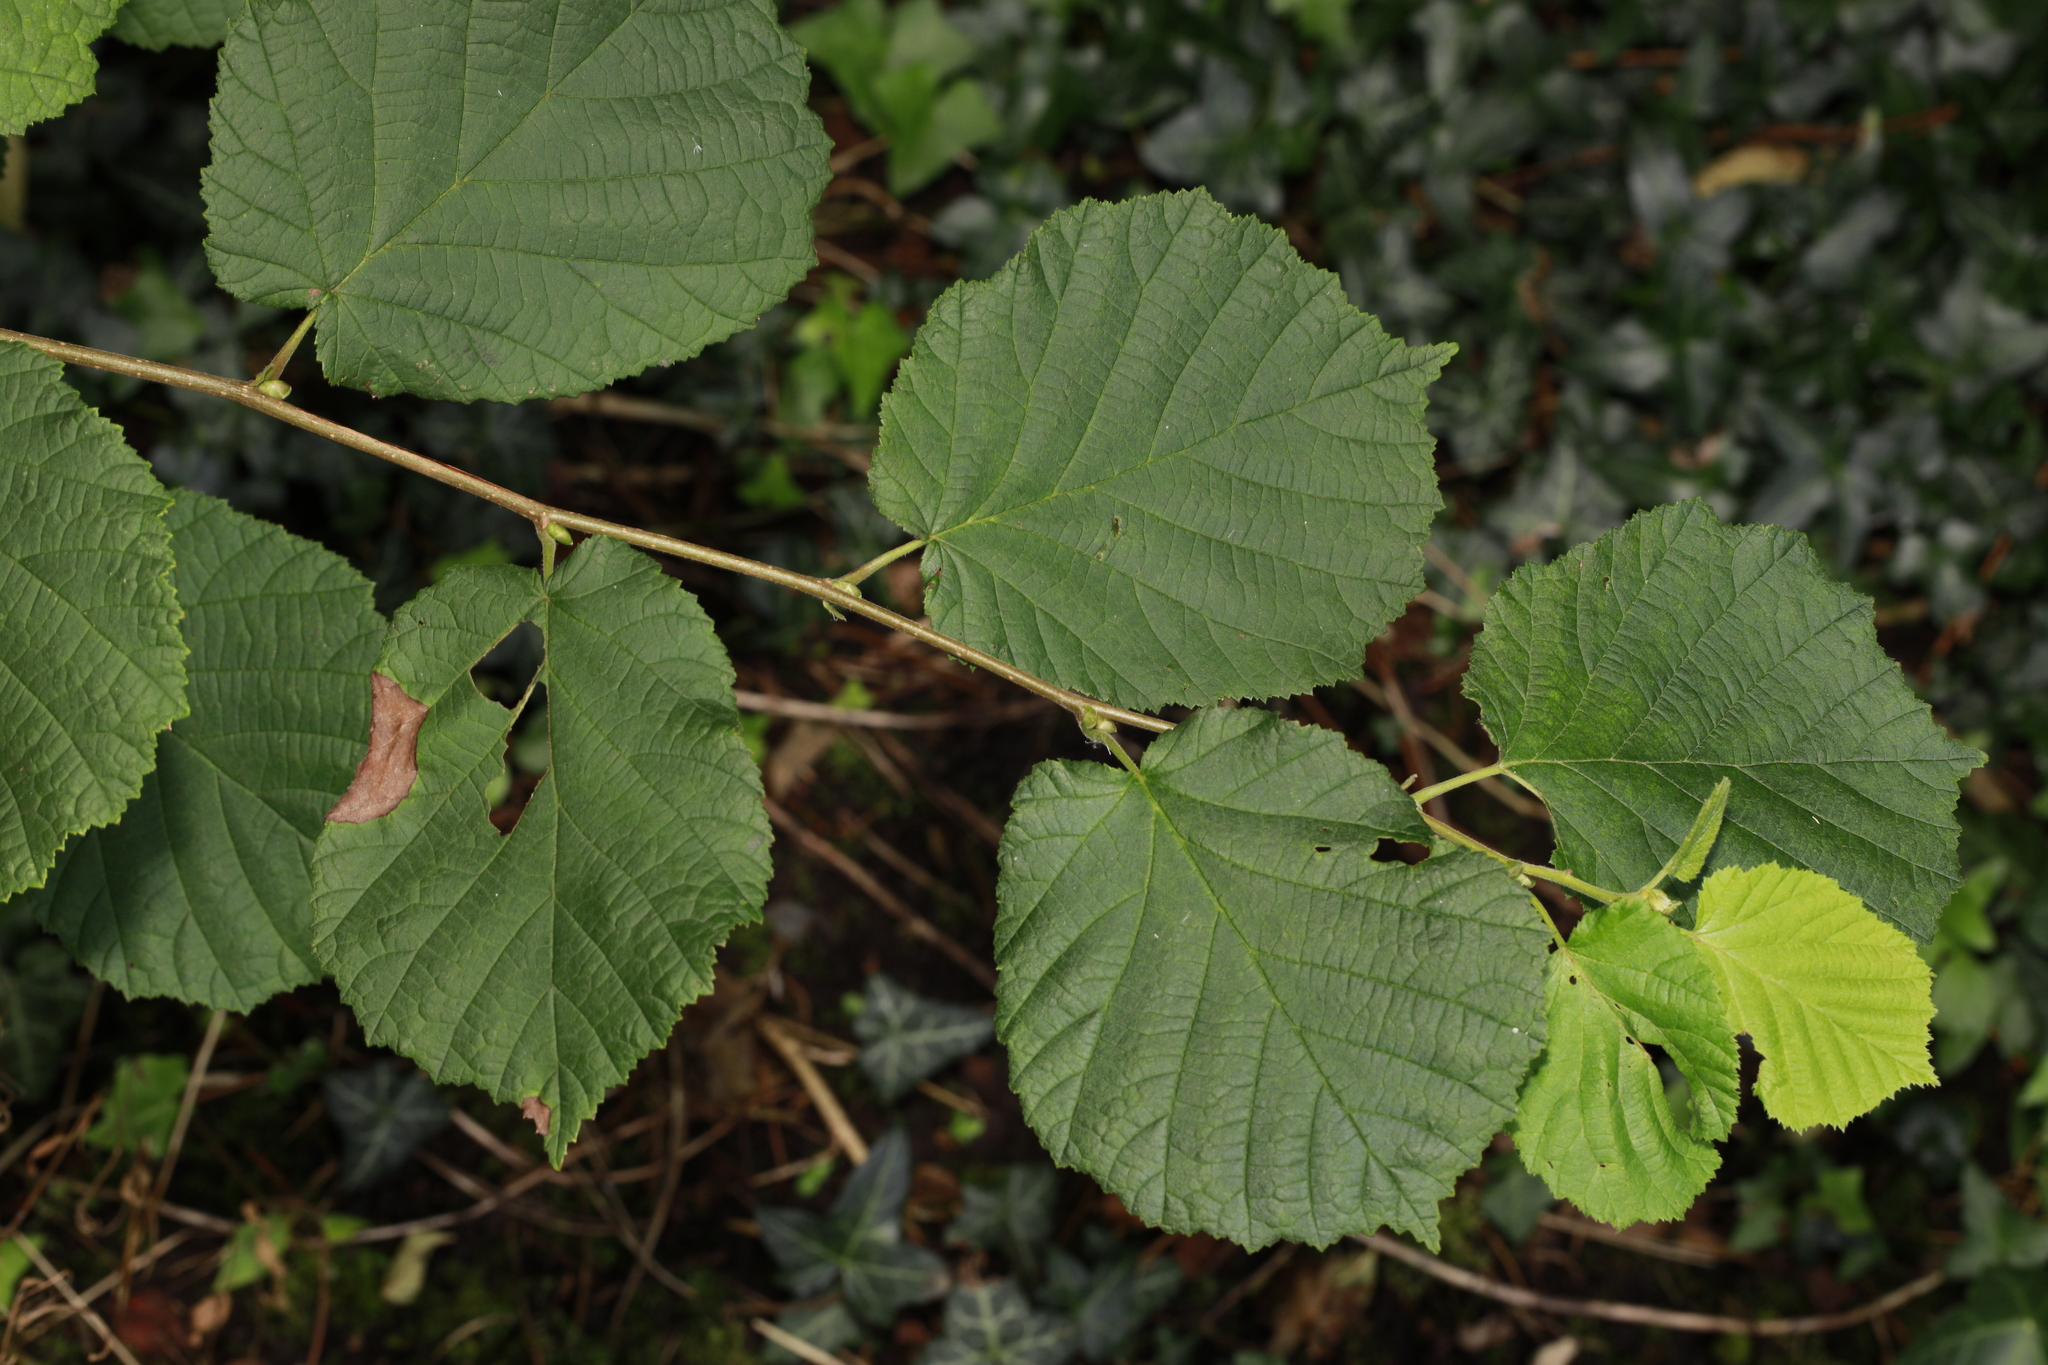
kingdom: Plantae
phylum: Tracheophyta
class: Magnoliopsida
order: Fagales
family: Betulaceae
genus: Corylus
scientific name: Corylus avellana
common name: European hazel
